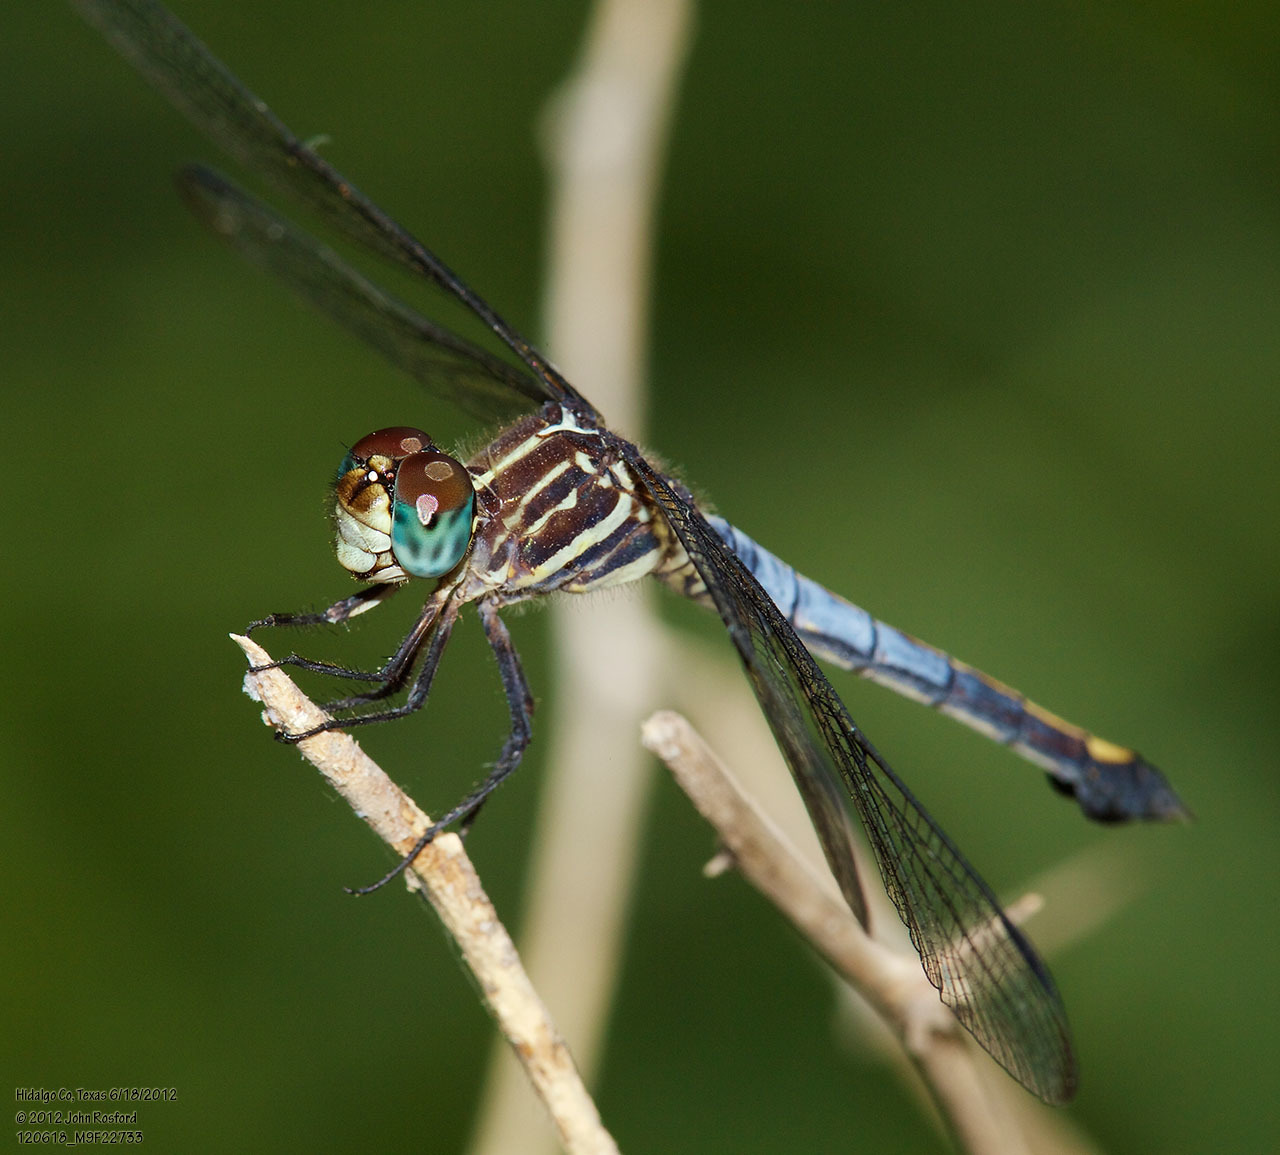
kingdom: Animalia
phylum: Arthropoda
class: Insecta
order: Odonata
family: Libellulidae
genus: Cannaphila
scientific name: Cannaphila insularis
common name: Gray-waisted skimmer
